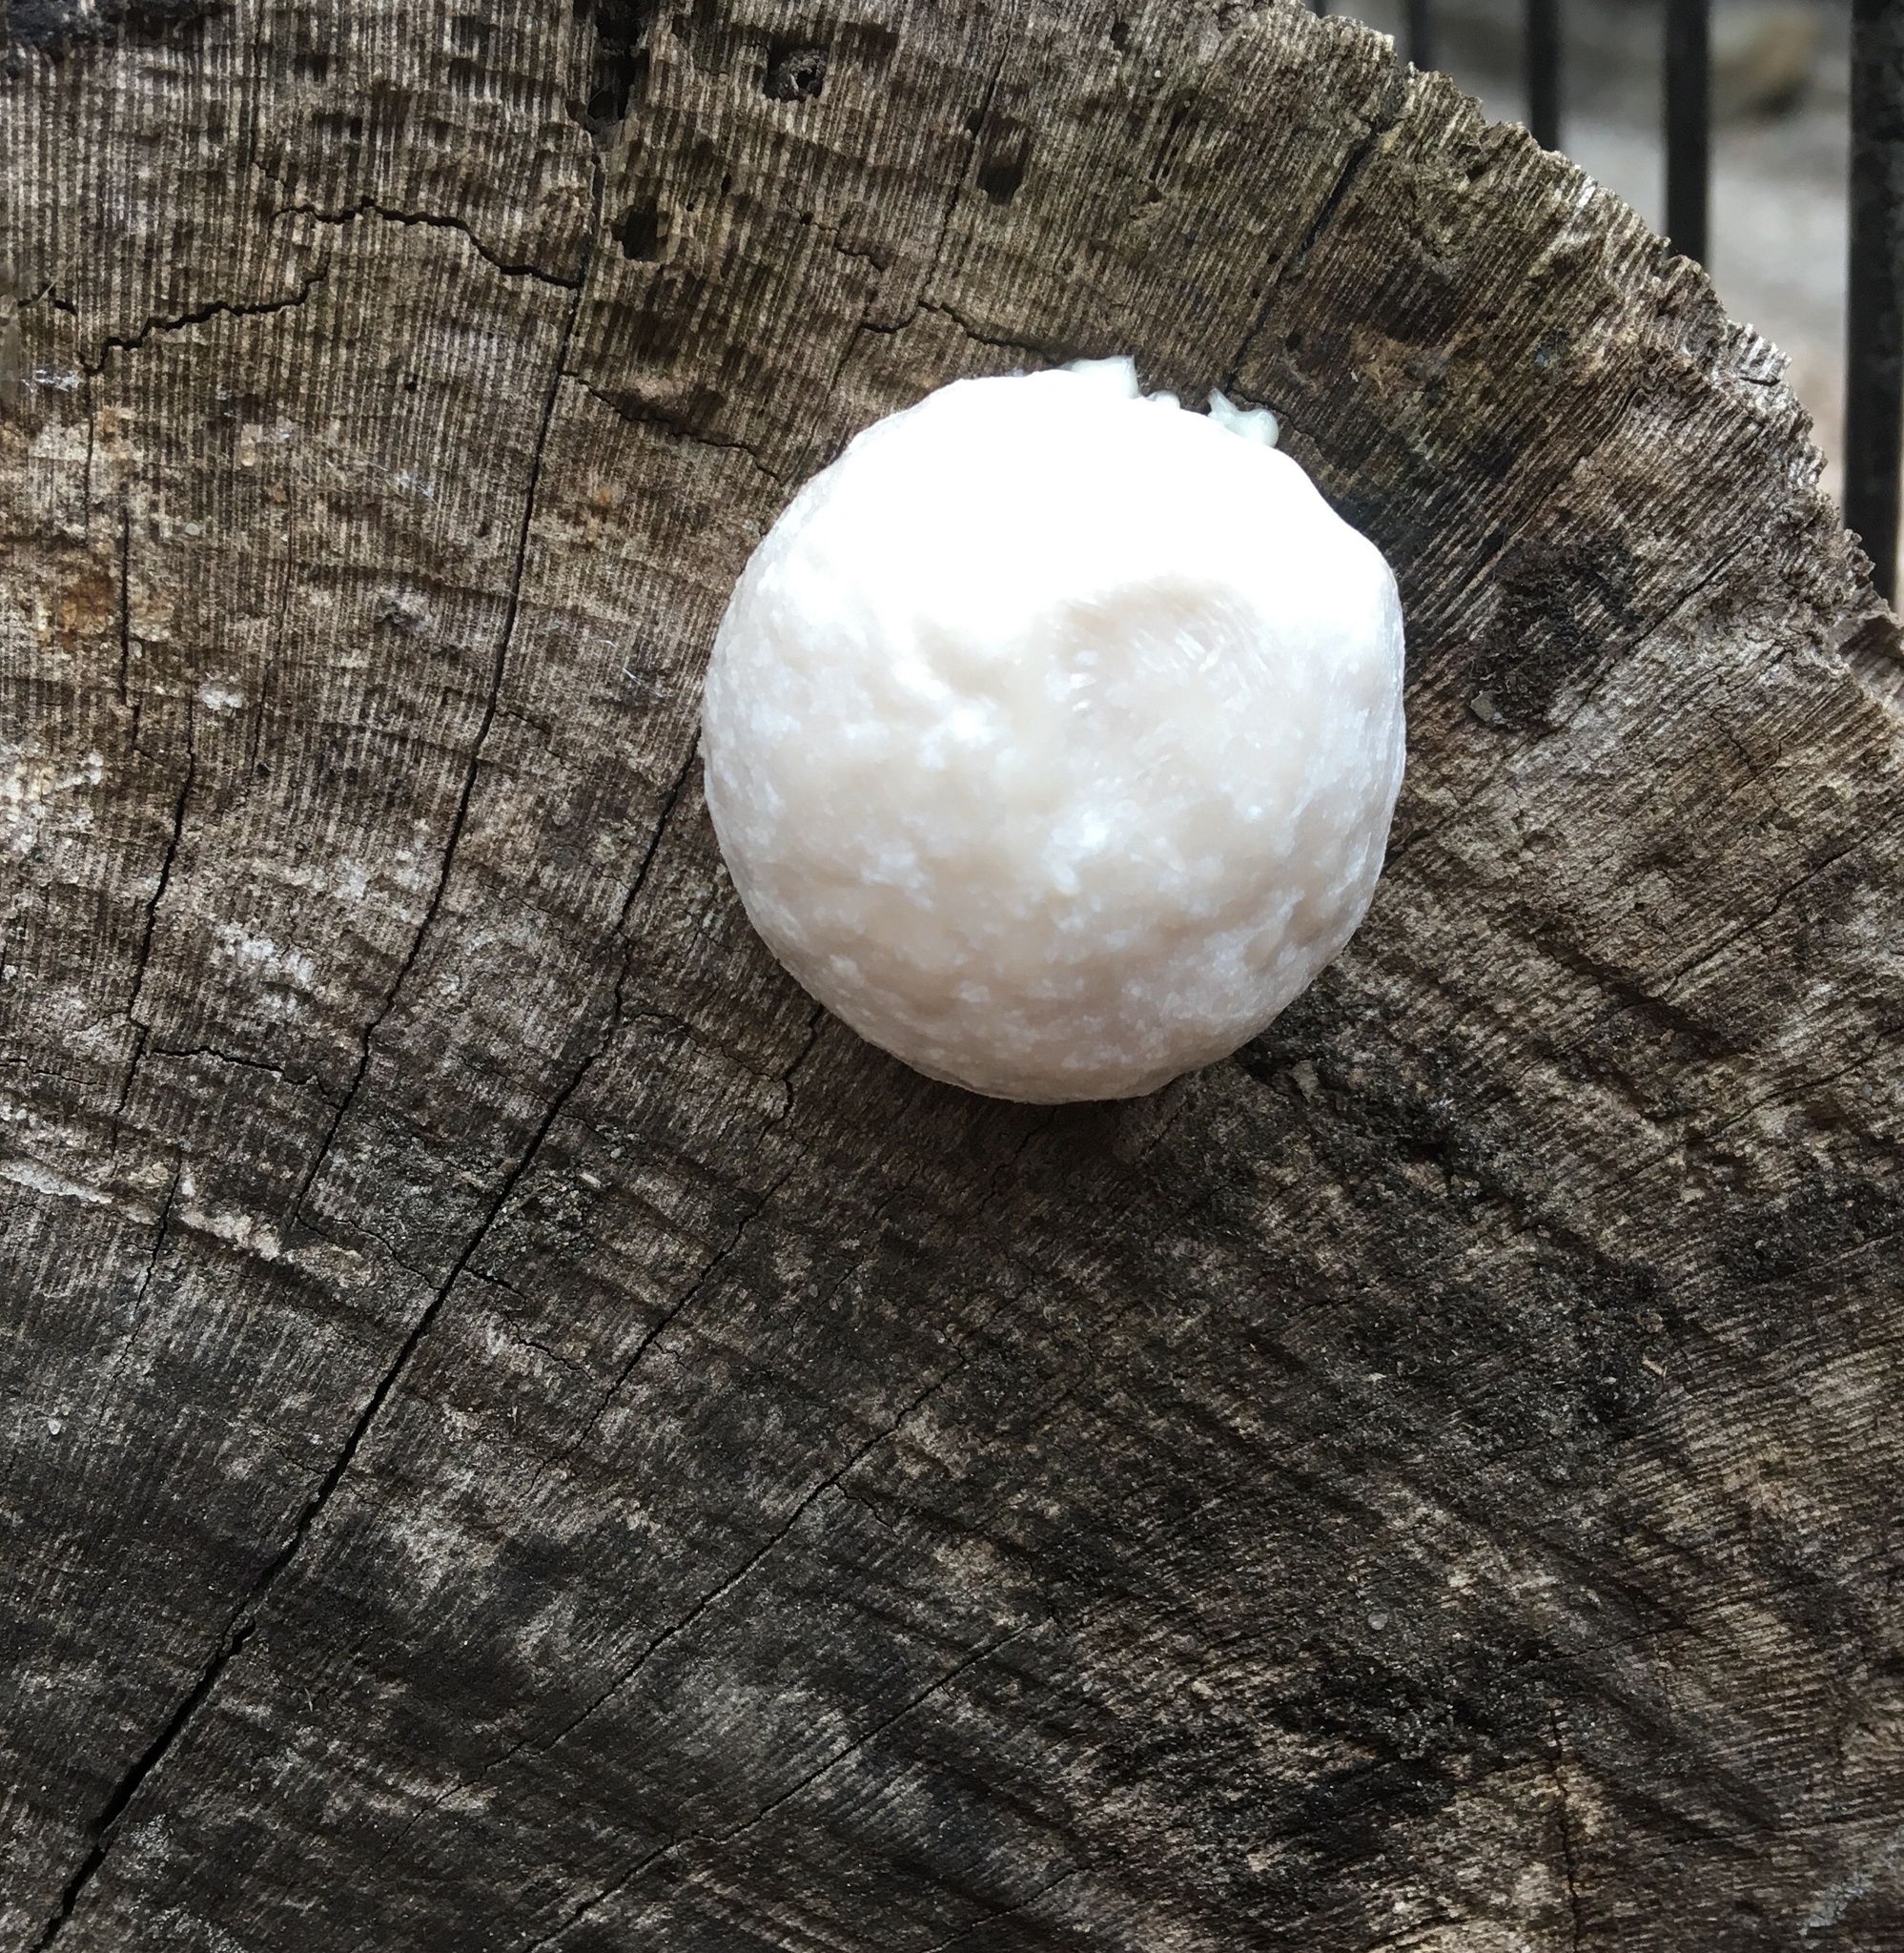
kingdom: Protozoa
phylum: Mycetozoa
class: Myxomycetes
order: Cribrariales
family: Tubiferaceae
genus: Reticularia
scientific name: Reticularia lycoperdon
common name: False puffball
